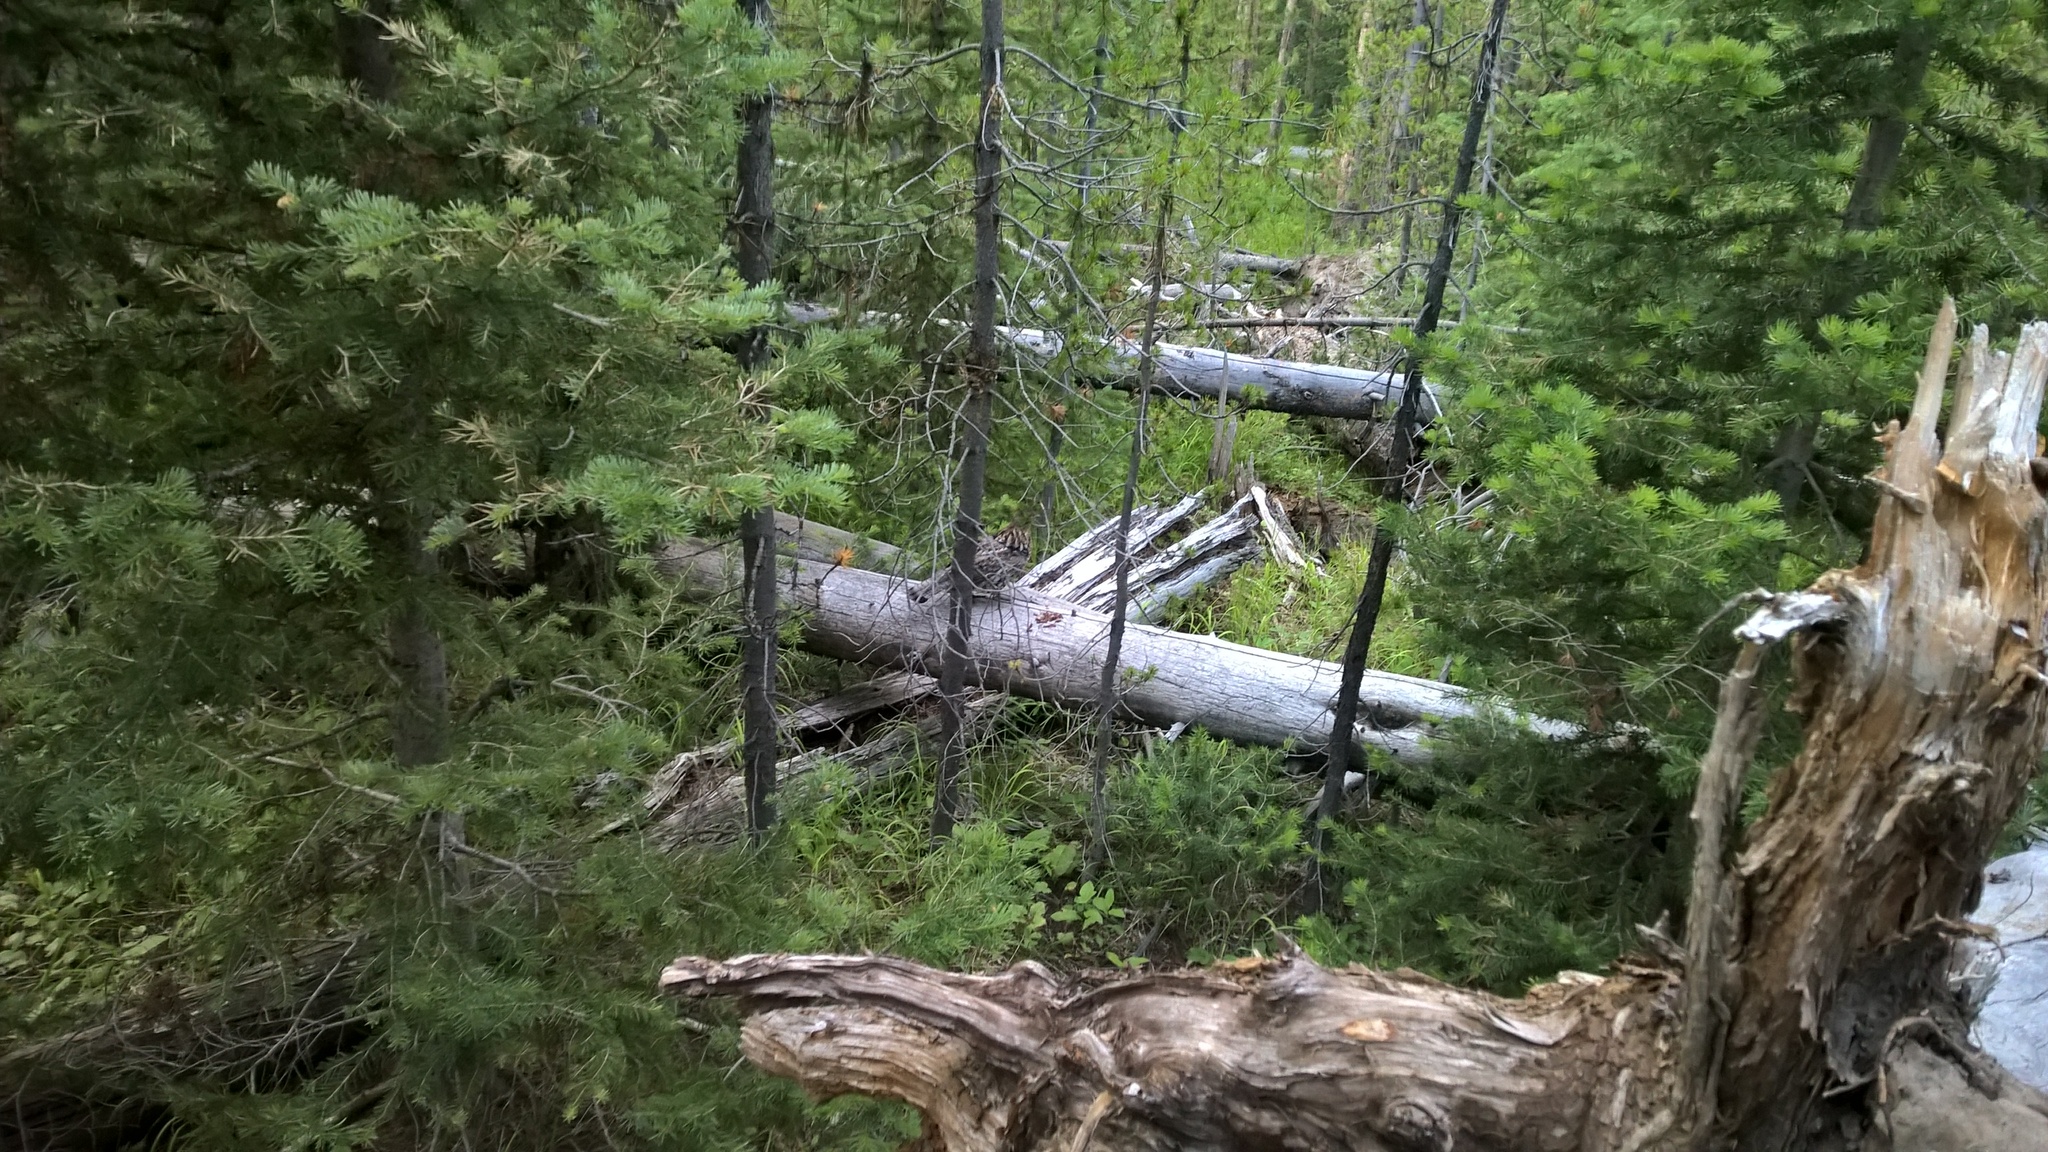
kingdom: Animalia
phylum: Chordata
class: Aves
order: Galliformes
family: Phasianidae
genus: Bonasa
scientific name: Bonasa umbellus
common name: Ruffed grouse
